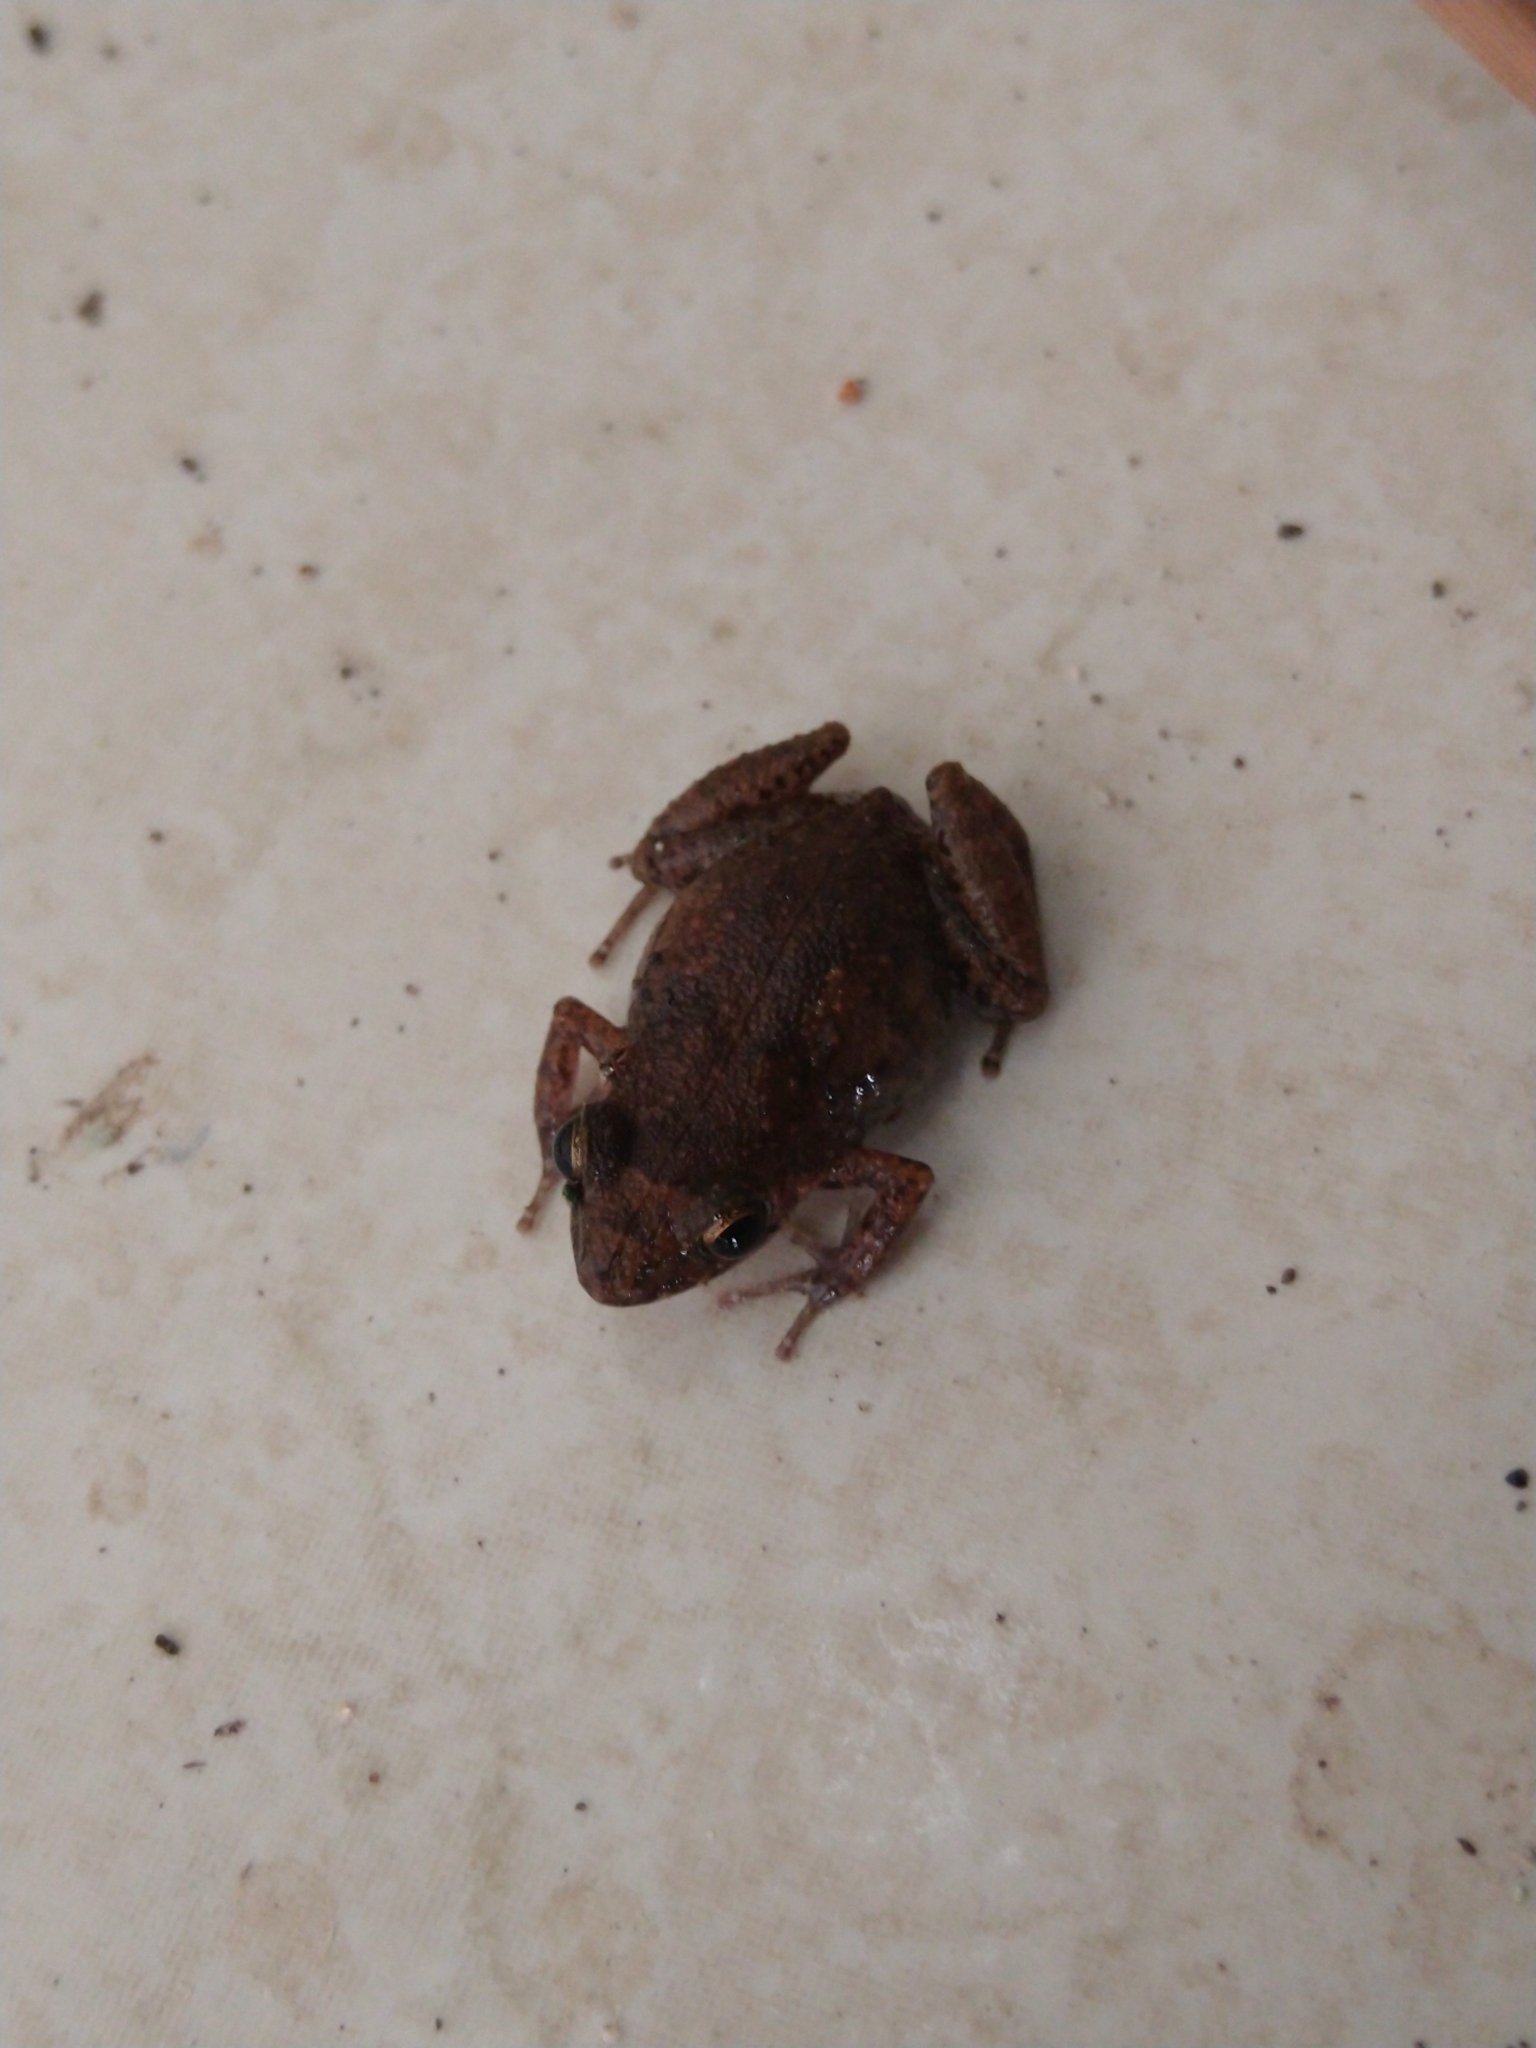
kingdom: Animalia
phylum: Chordata
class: Amphibia
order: Anura
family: Eleutherodactylidae
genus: Eleutherodactylus
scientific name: Eleutherodactylus planirostris
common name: Greenhouse frog
